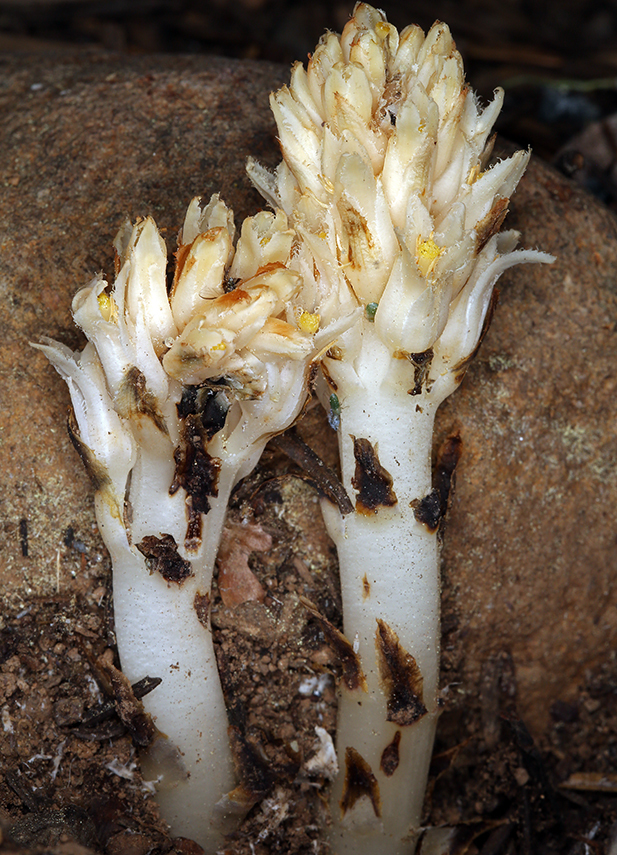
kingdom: Plantae
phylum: Tracheophyta
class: Magnoliopsida
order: Ericales
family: Ericaceae
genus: Pleuricospora
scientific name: Pleuricospora fimbriolata
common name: Fringed pinesap
